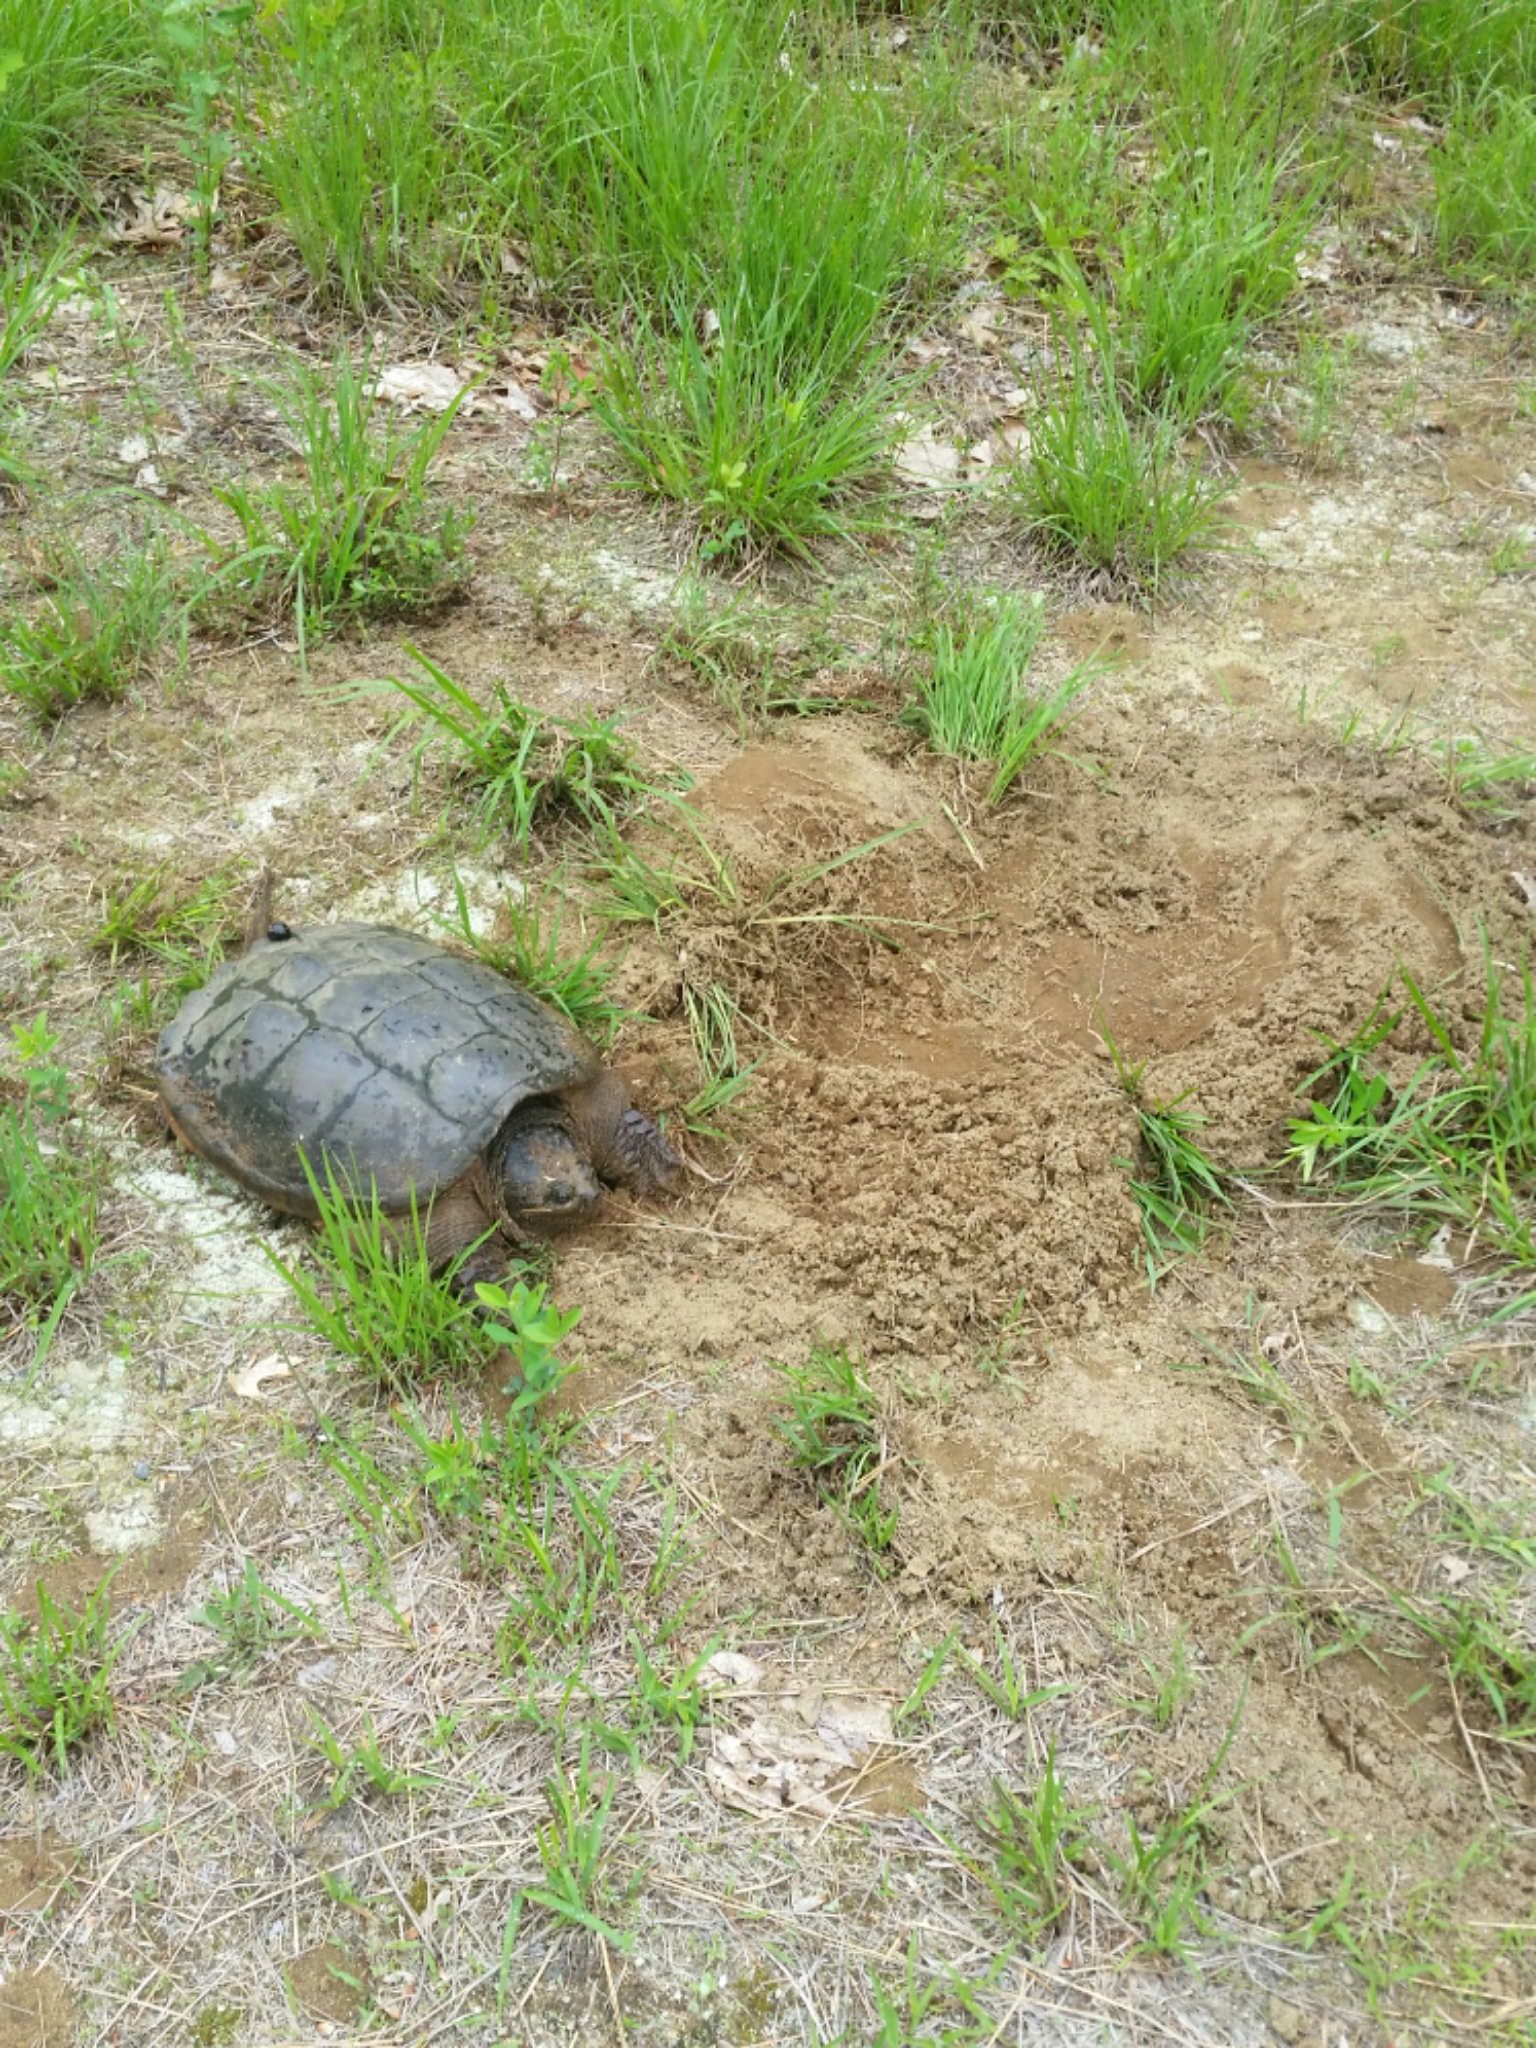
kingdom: Animalia
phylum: Chordata
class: Testudines
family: Chelydridae
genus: Chelydra
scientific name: Chelydra serpentina
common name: Common snapping turtle
